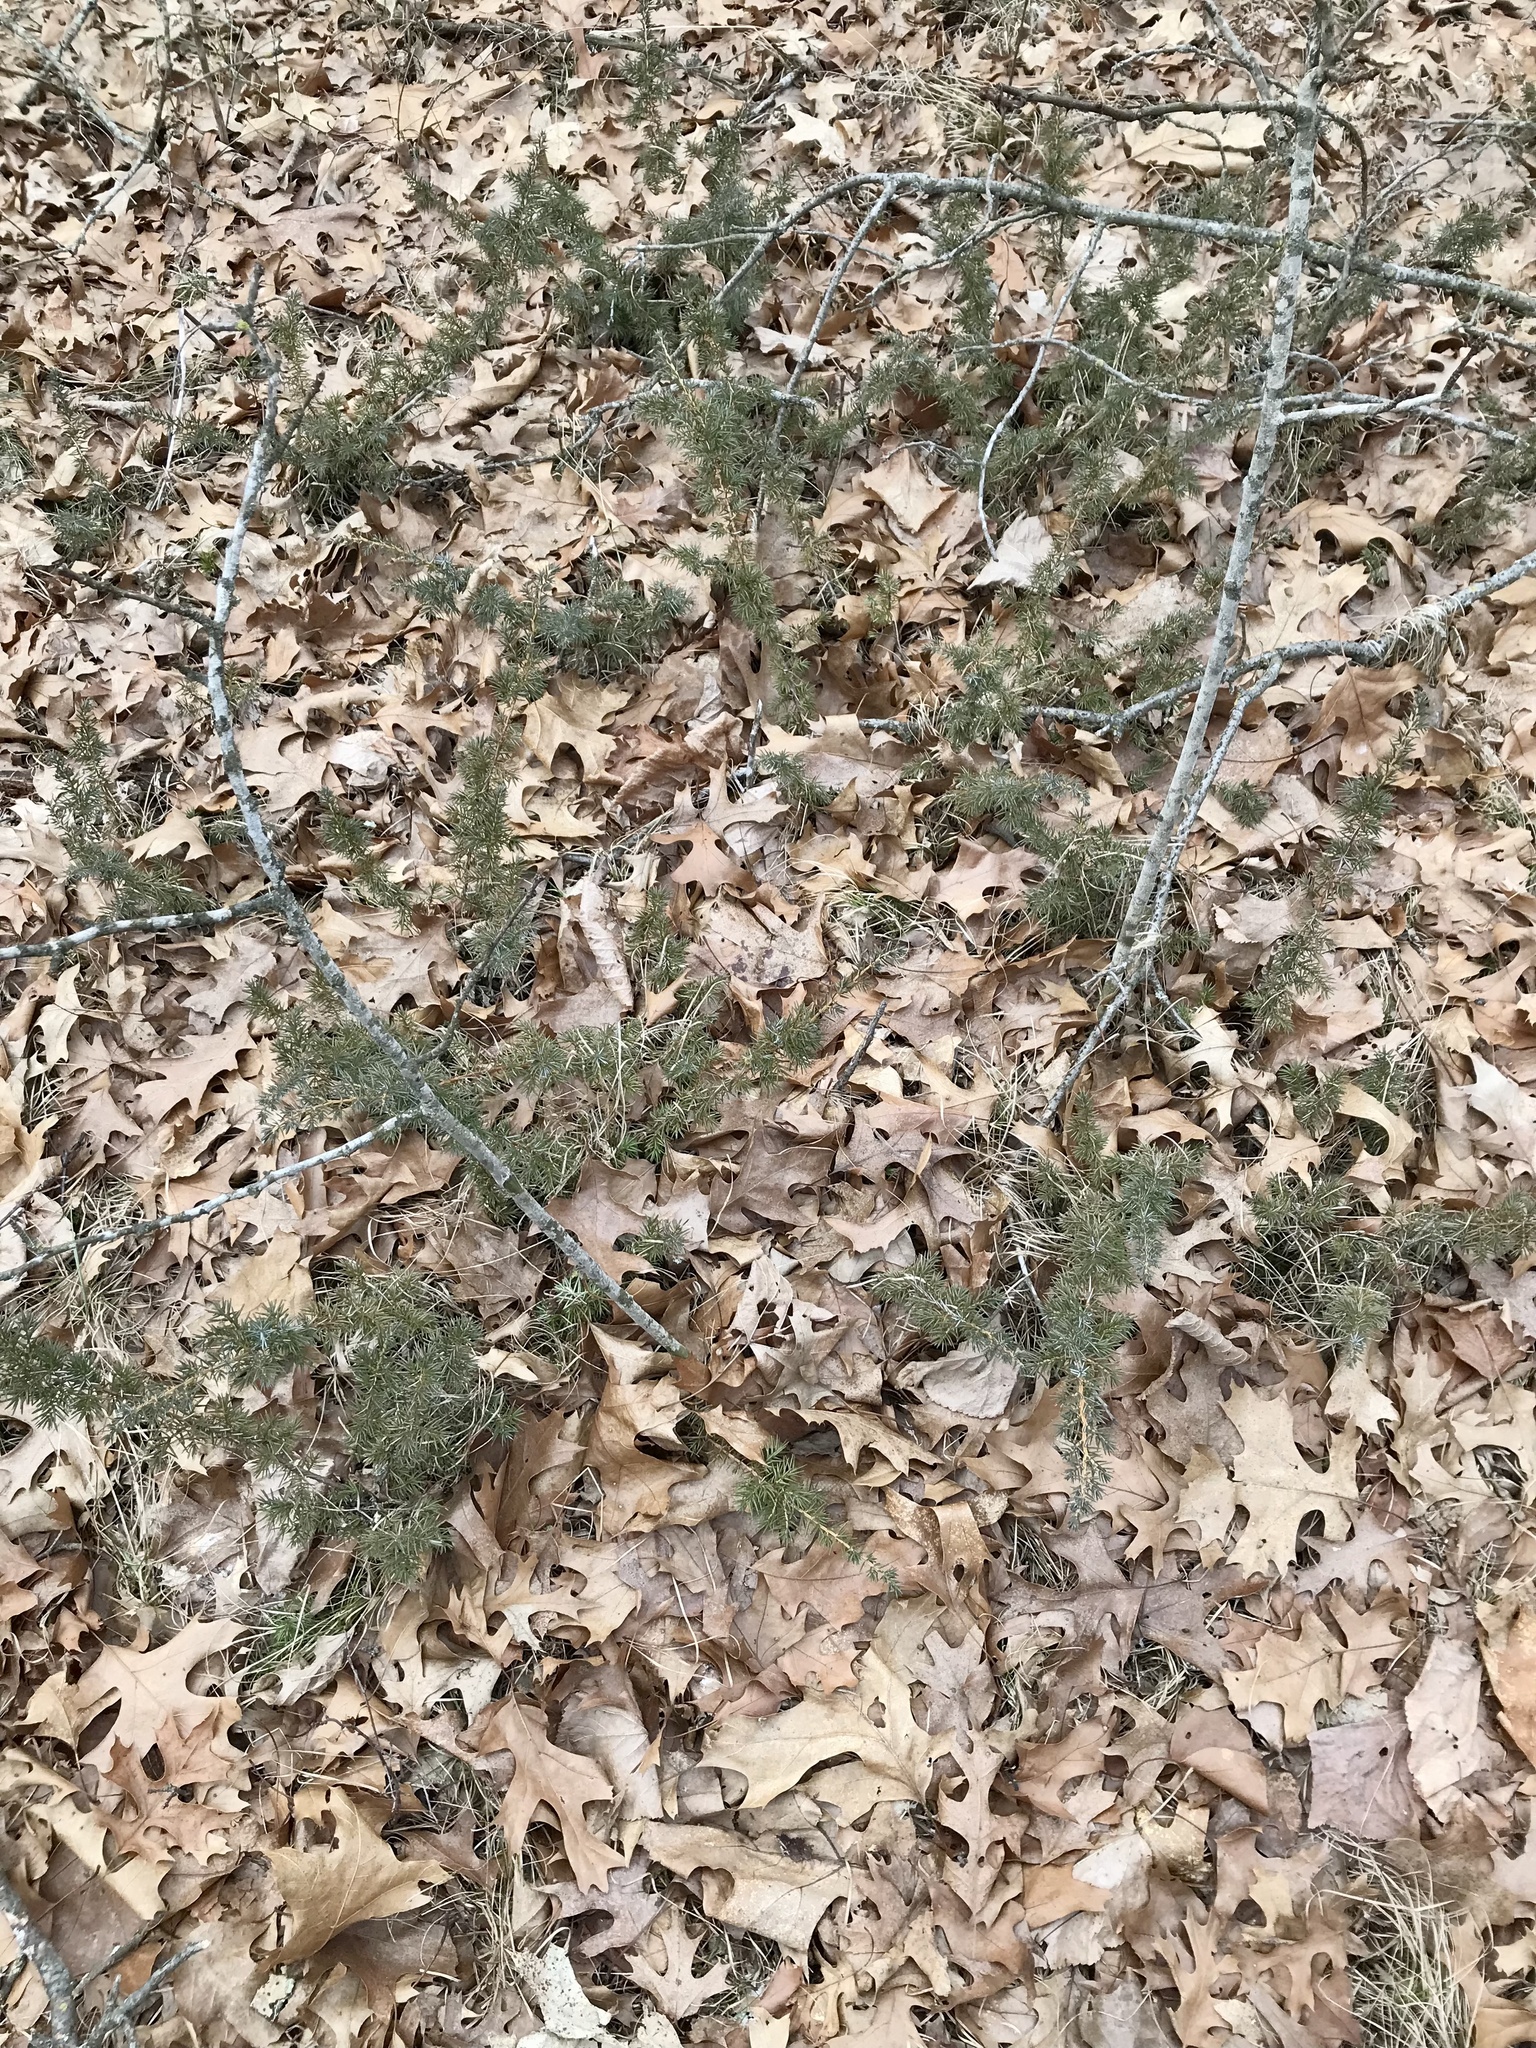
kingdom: Plantae
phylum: Tracheophyta
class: Pinopsida
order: Pinales
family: Cupressaceae
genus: Juniperus
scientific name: Juniperus communis
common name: Common juniper
